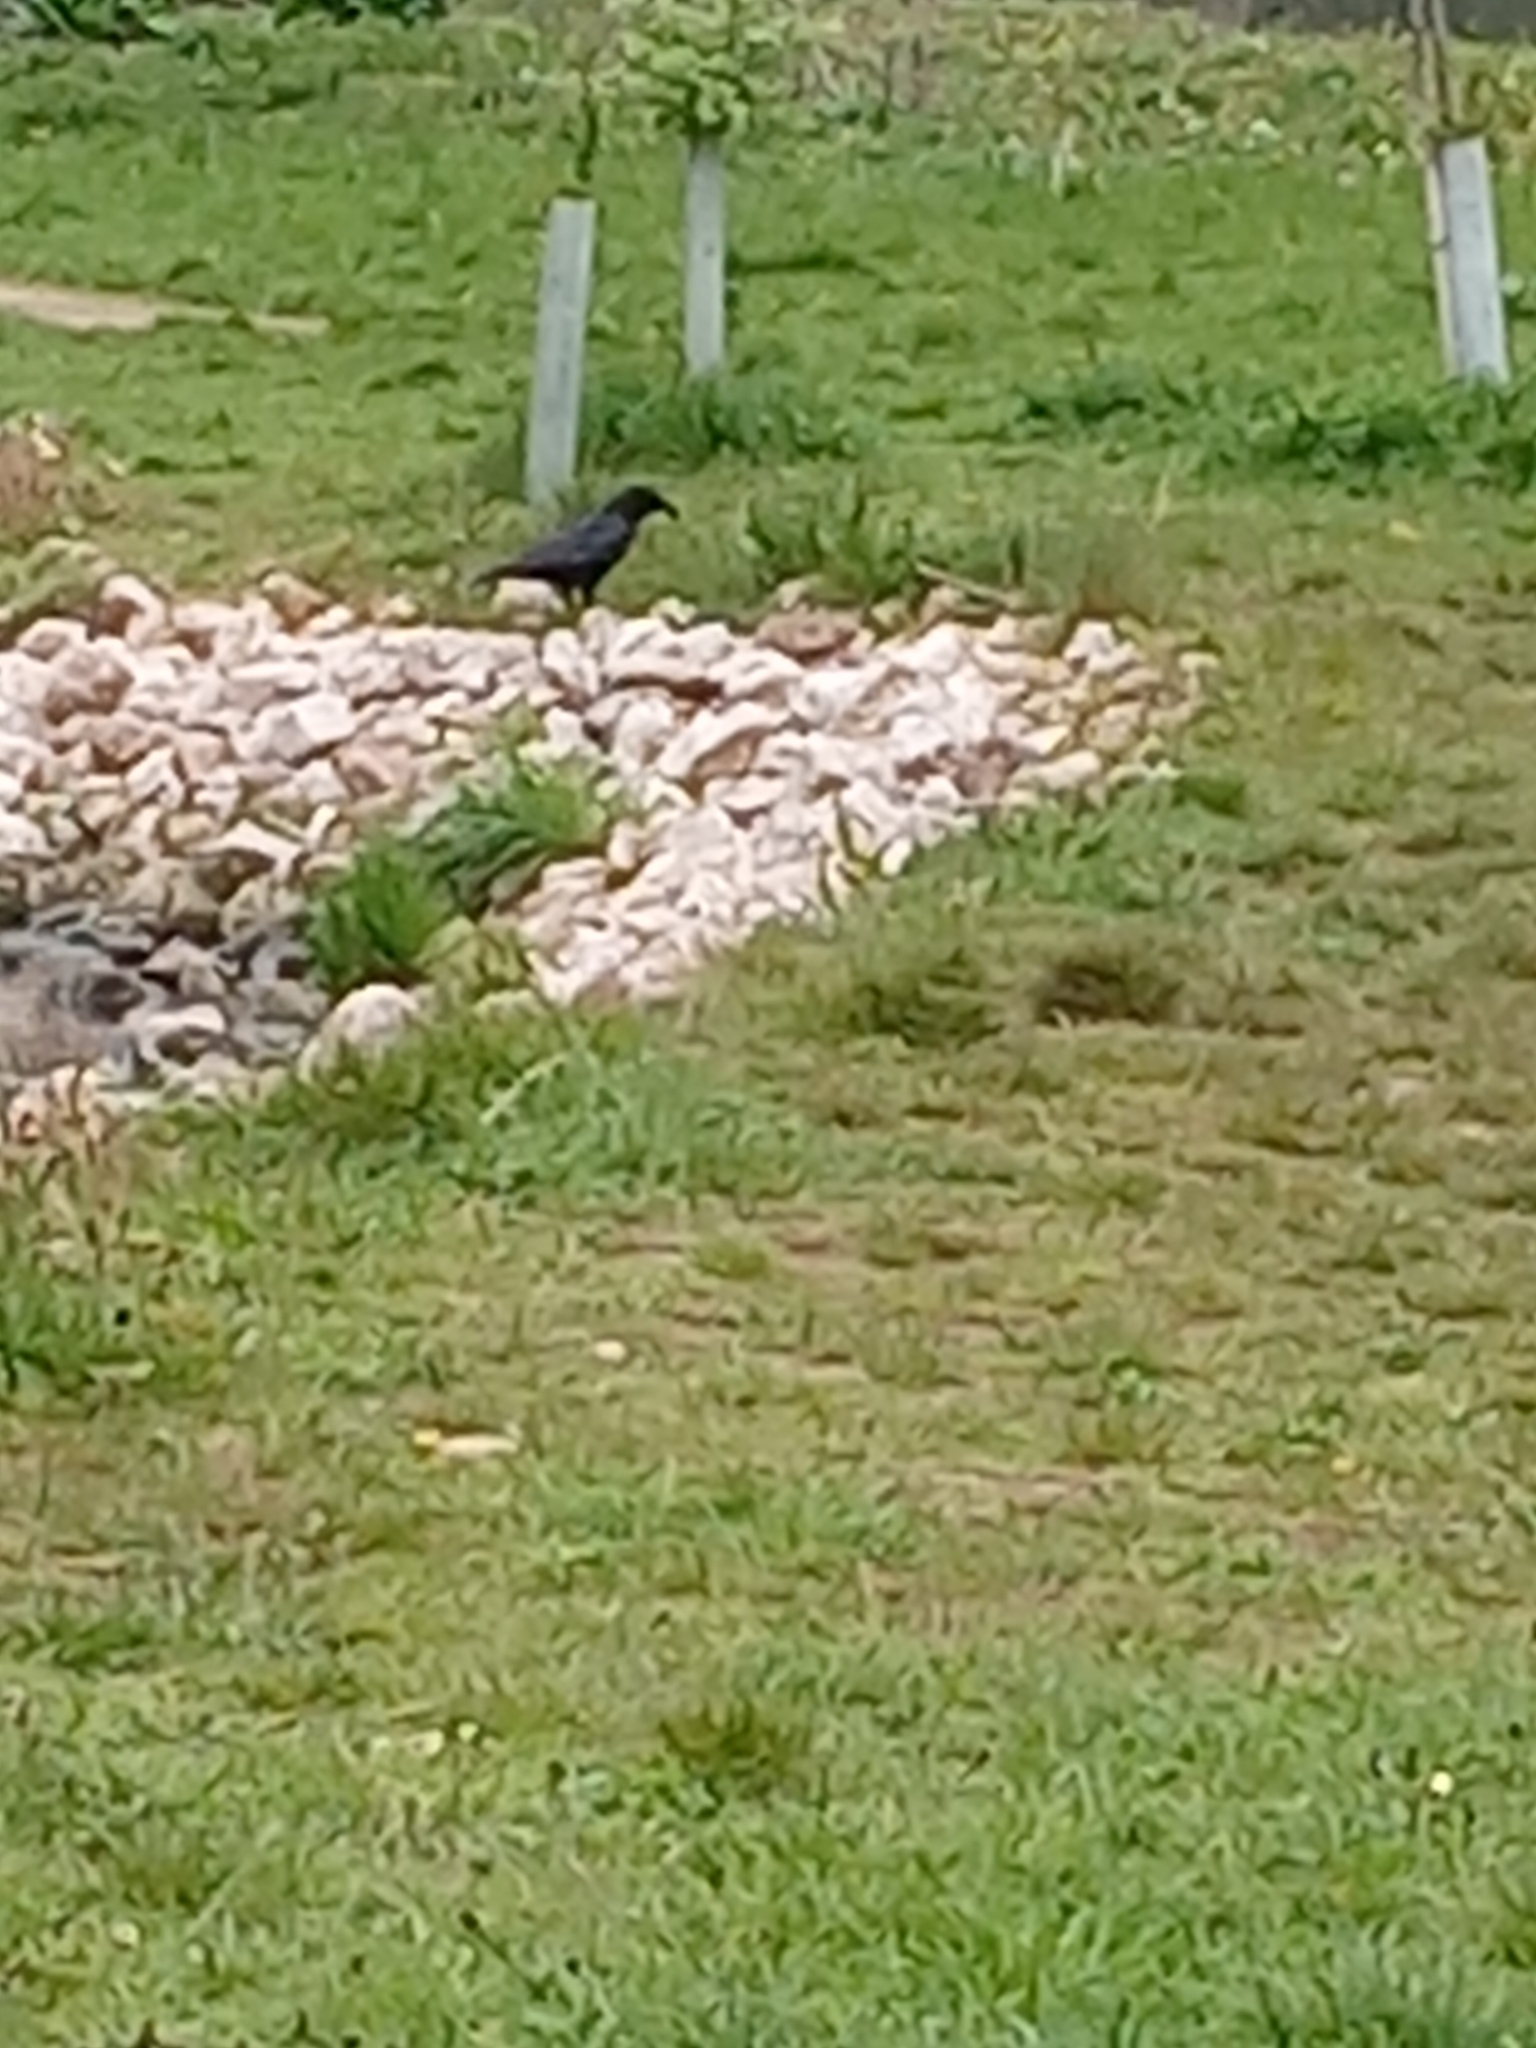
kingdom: Animalia
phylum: Chordata
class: Aves
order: Passeriformes
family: Corvidae
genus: Corvus
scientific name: Corvus corone
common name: Carrion crow
